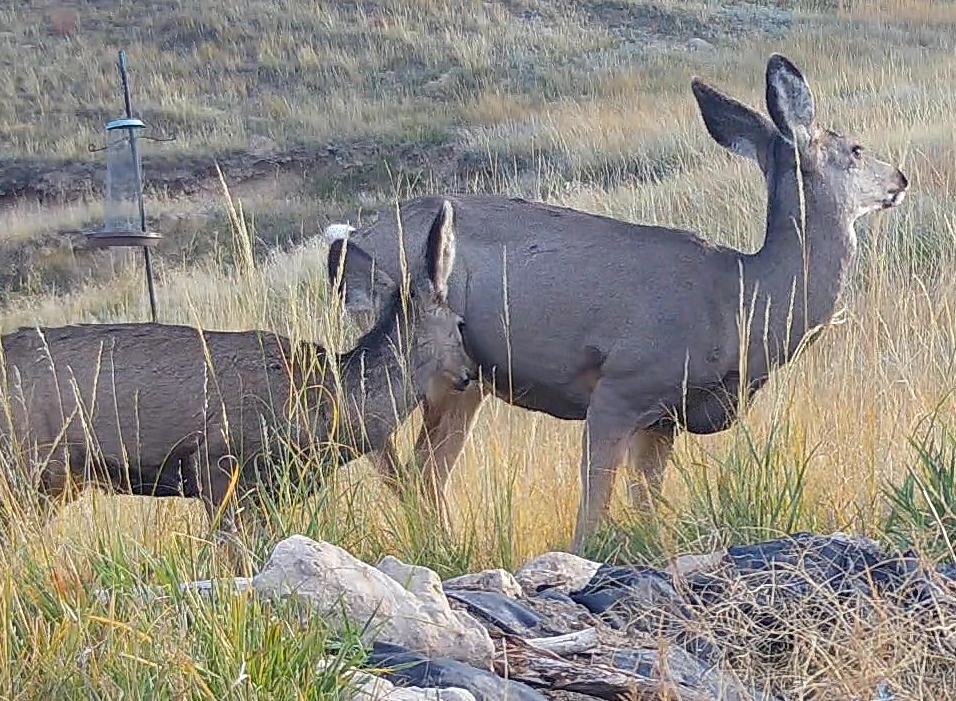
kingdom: Animalia
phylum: Chordata
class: Mammalia
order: Artiodactyla
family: Cervidae
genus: Odocoileus
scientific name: Odocoileus hemionus
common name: Mule deer
